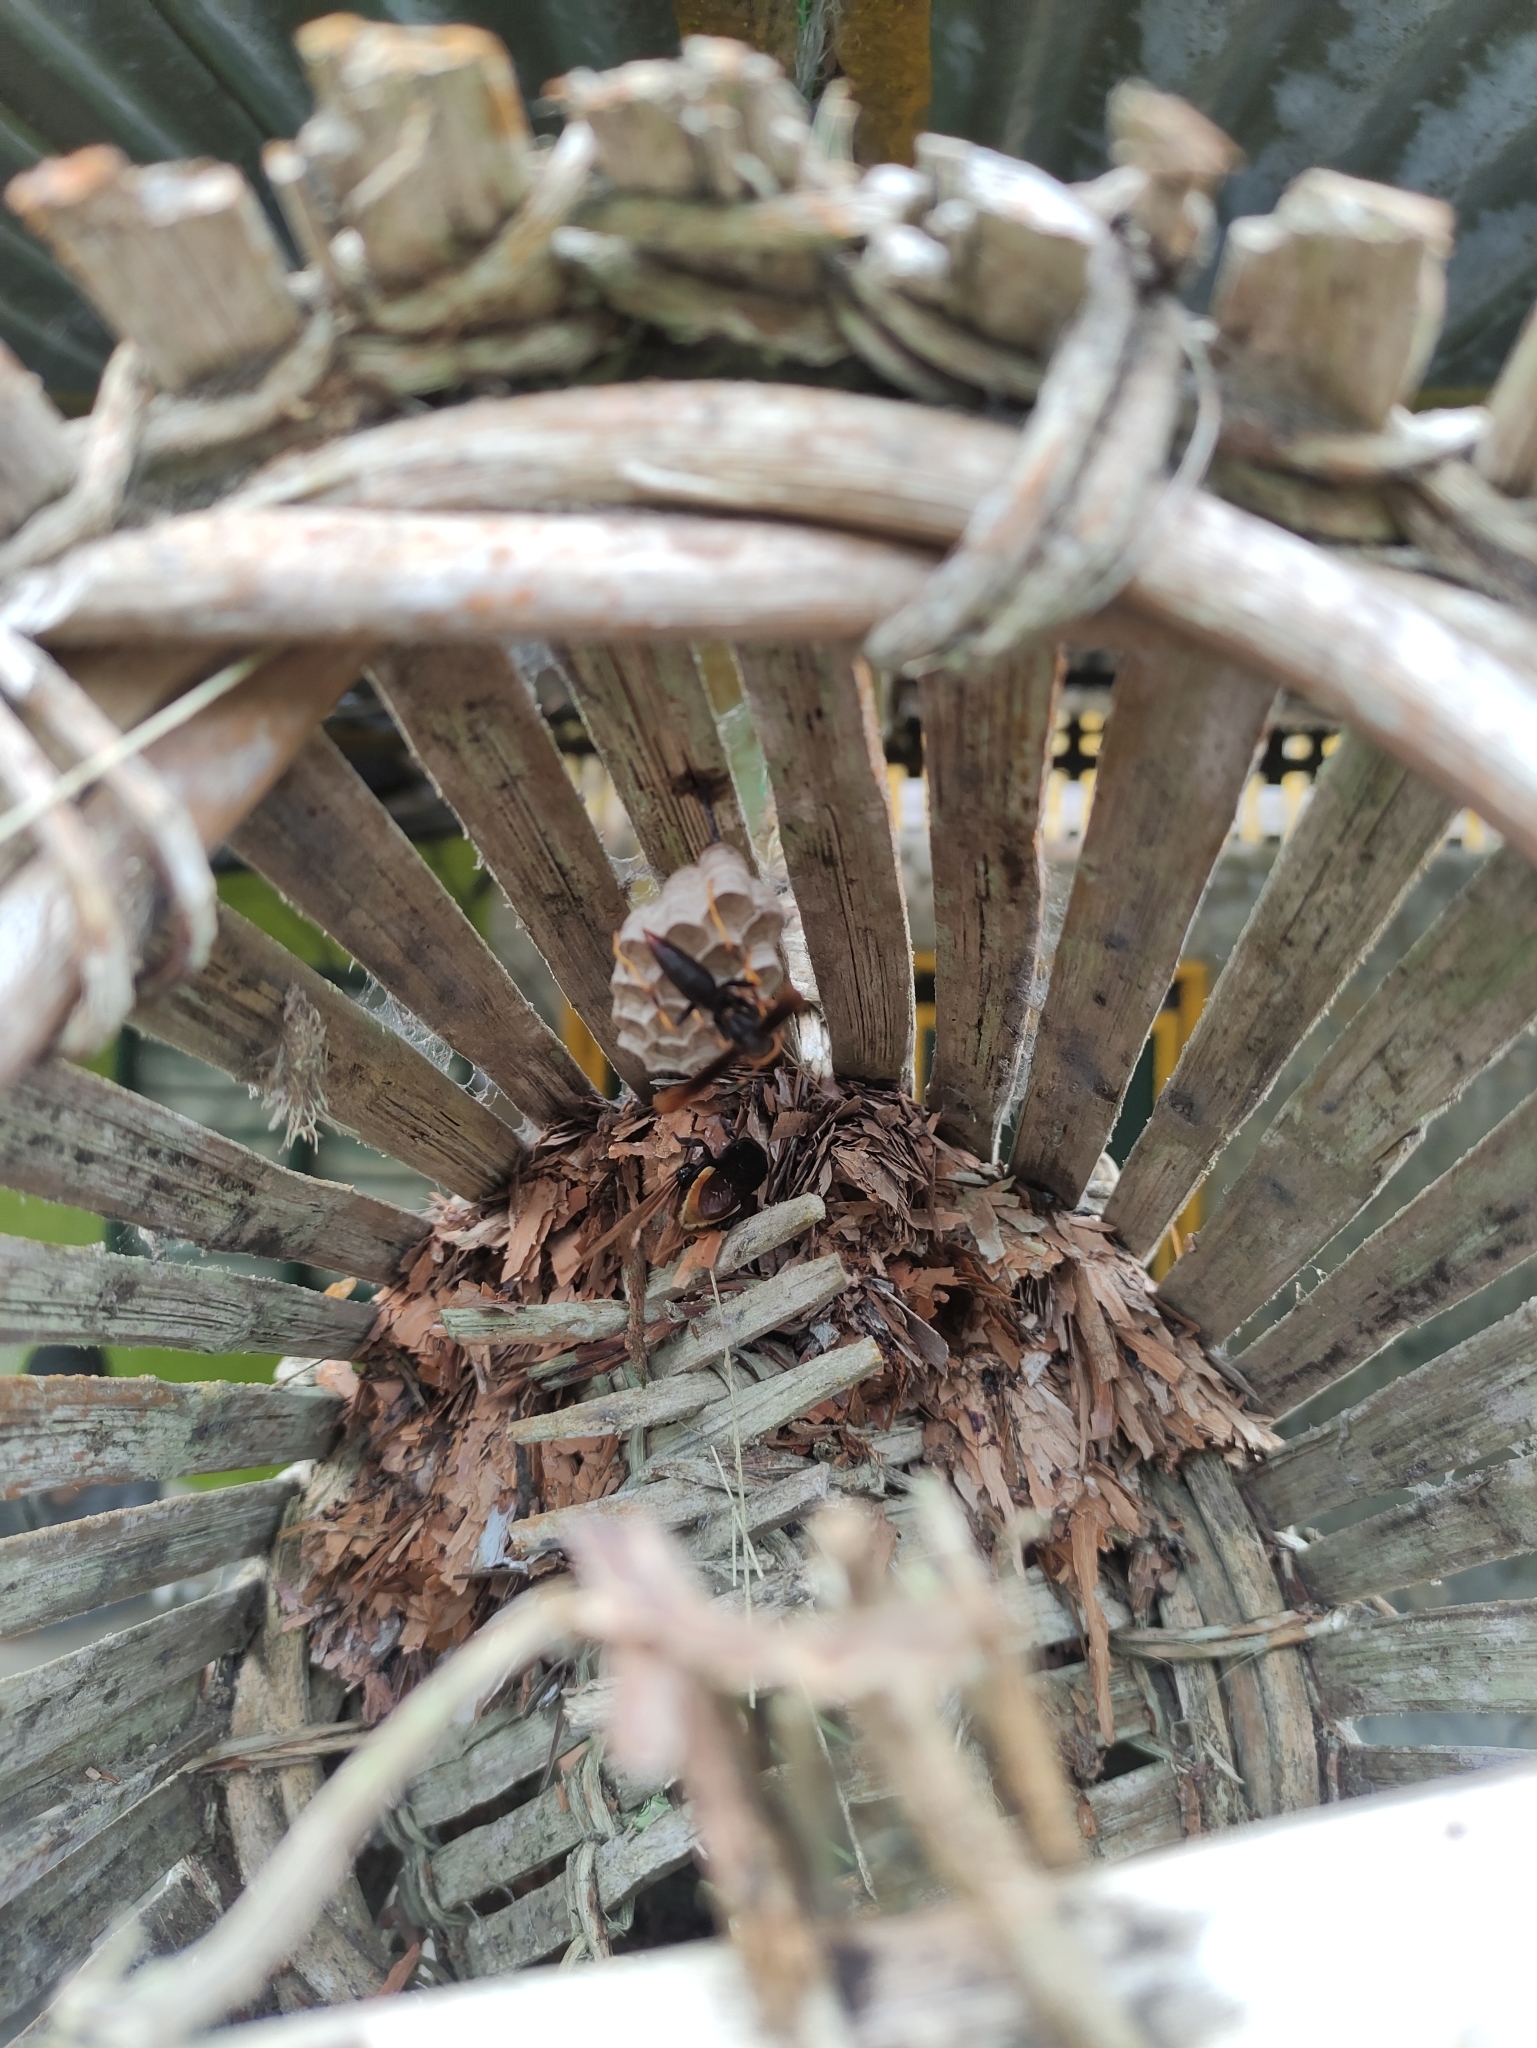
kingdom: Animalia
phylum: Arthropoda
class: Insecta
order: Hymenoptera
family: Eumenidae
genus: Polistes
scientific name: Polistes infuscatus
